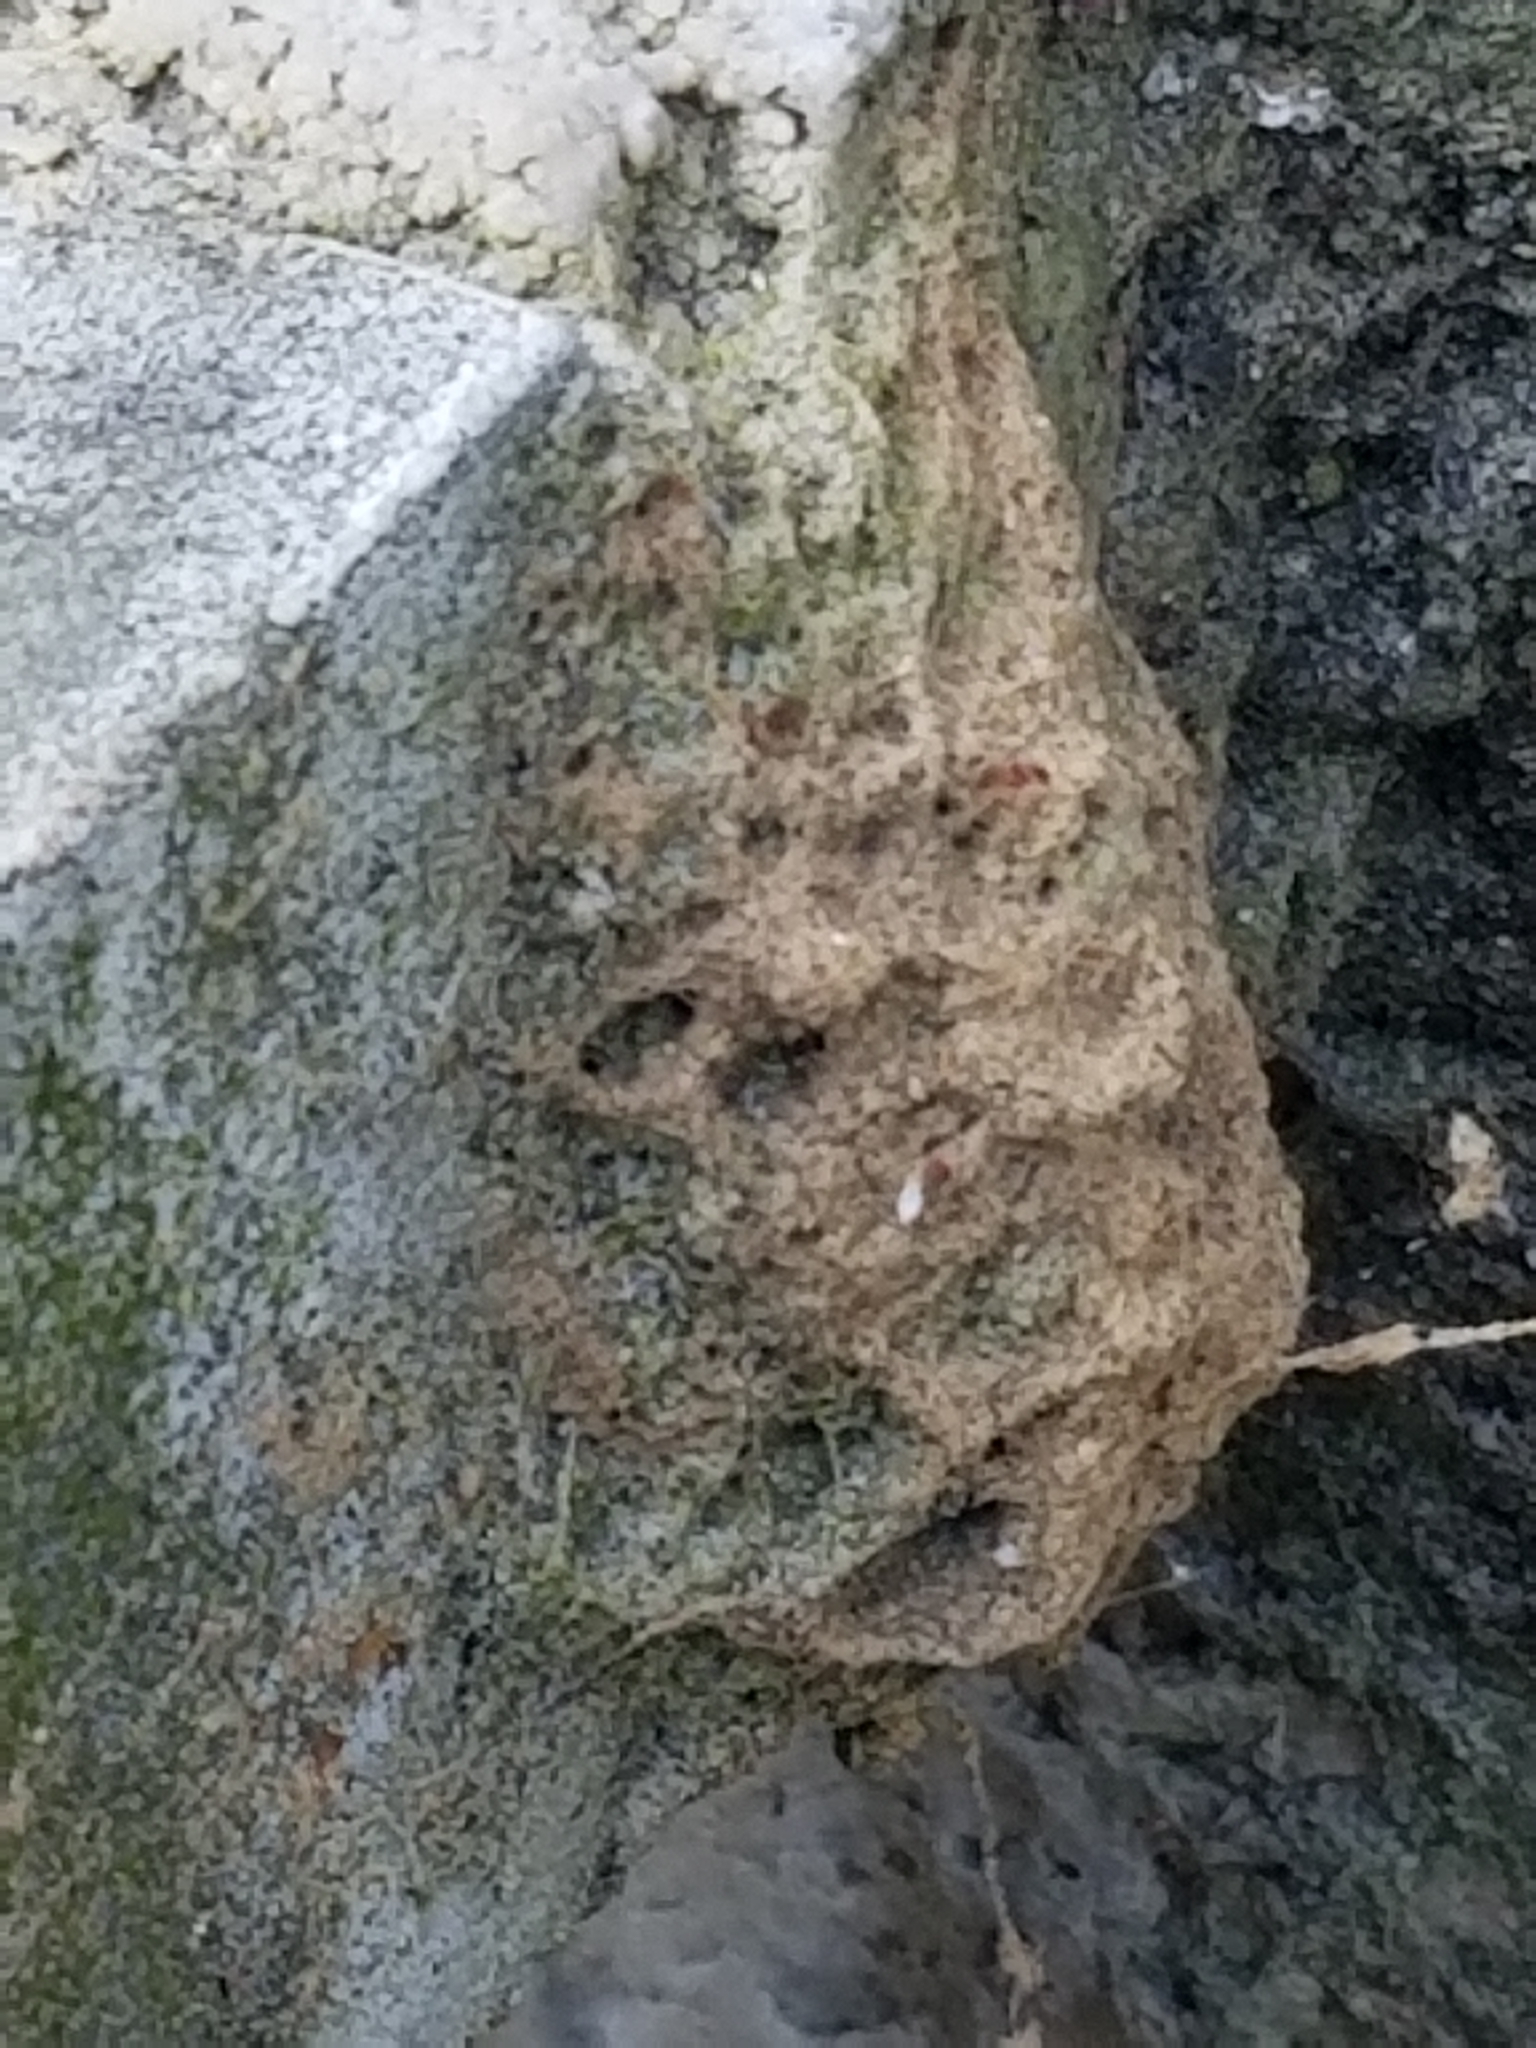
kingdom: Animalia
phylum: Arthropoda
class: Insecta
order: Lepidoptera
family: Erebidae
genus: Lymantria
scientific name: Lymantria dispar
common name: Gypsy moth
